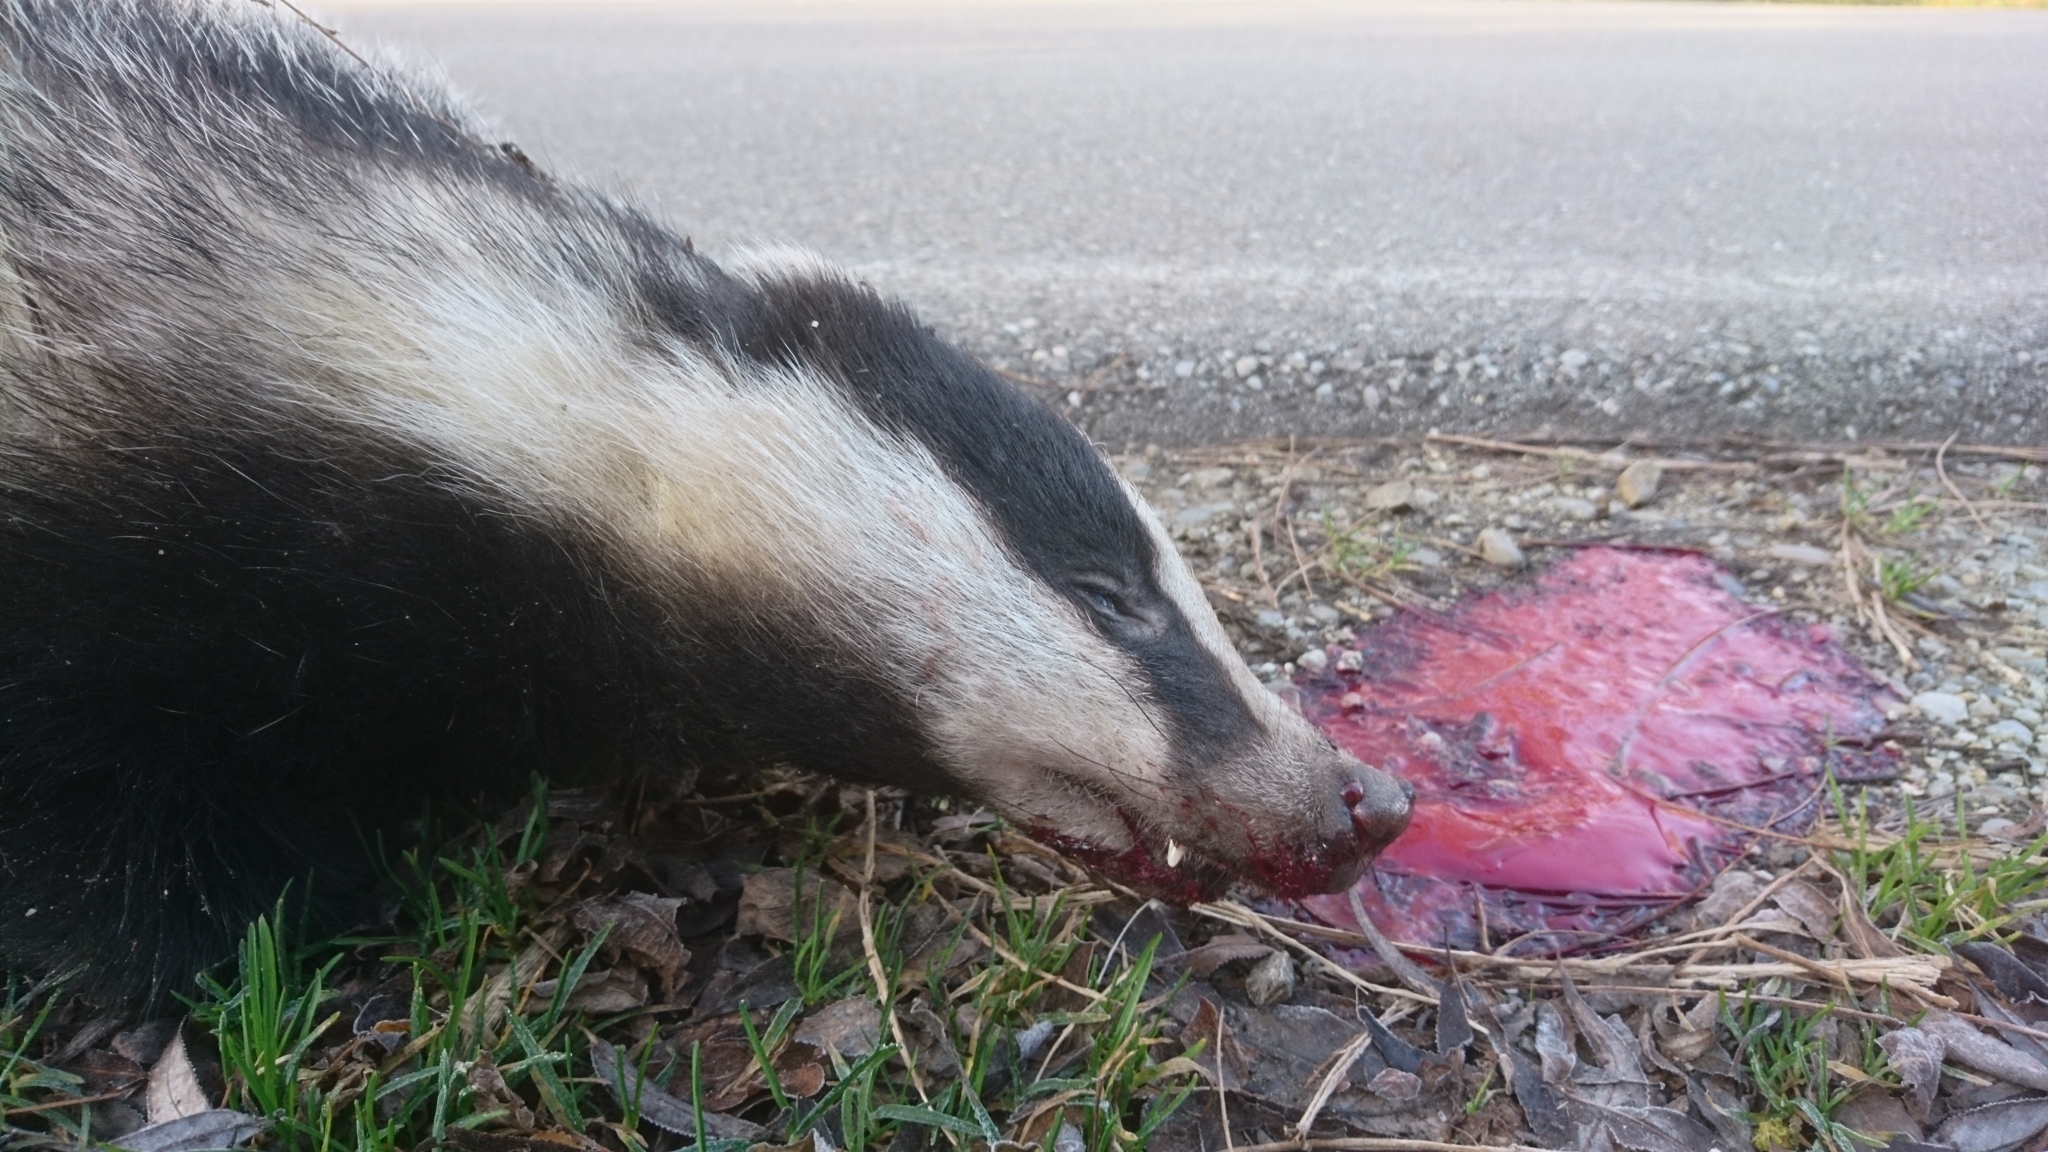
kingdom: Animalia
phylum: Chordata
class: Mammalia
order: Carnivora
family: Mustelidae
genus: Meles
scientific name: Meles meles
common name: Eurasian badger
